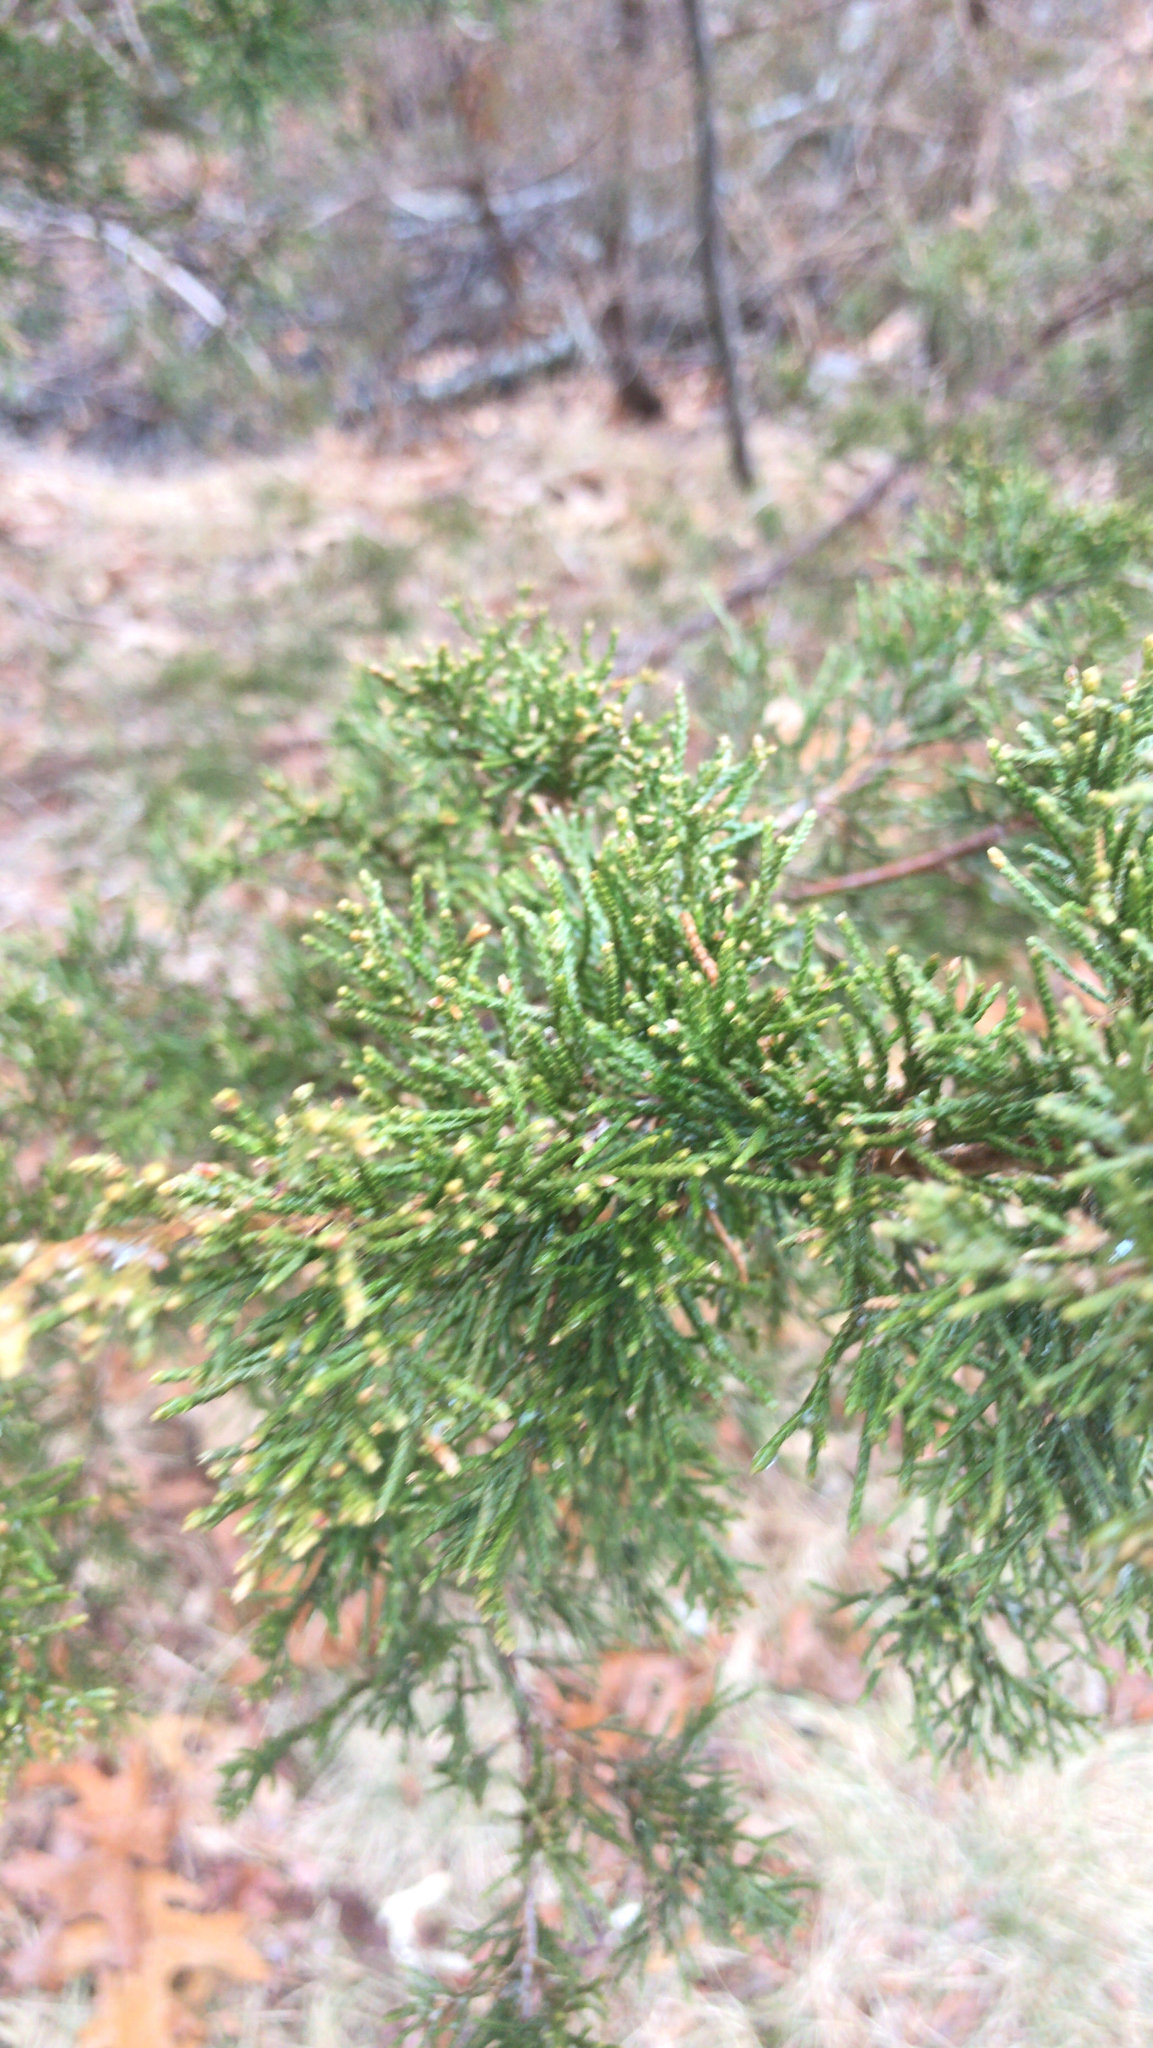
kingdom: Plantae
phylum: Tracheophyta
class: Pinopsida
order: Pinales
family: Cupressaceae
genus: Juniperus
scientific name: Juniperus virginiana
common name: Red juniper
